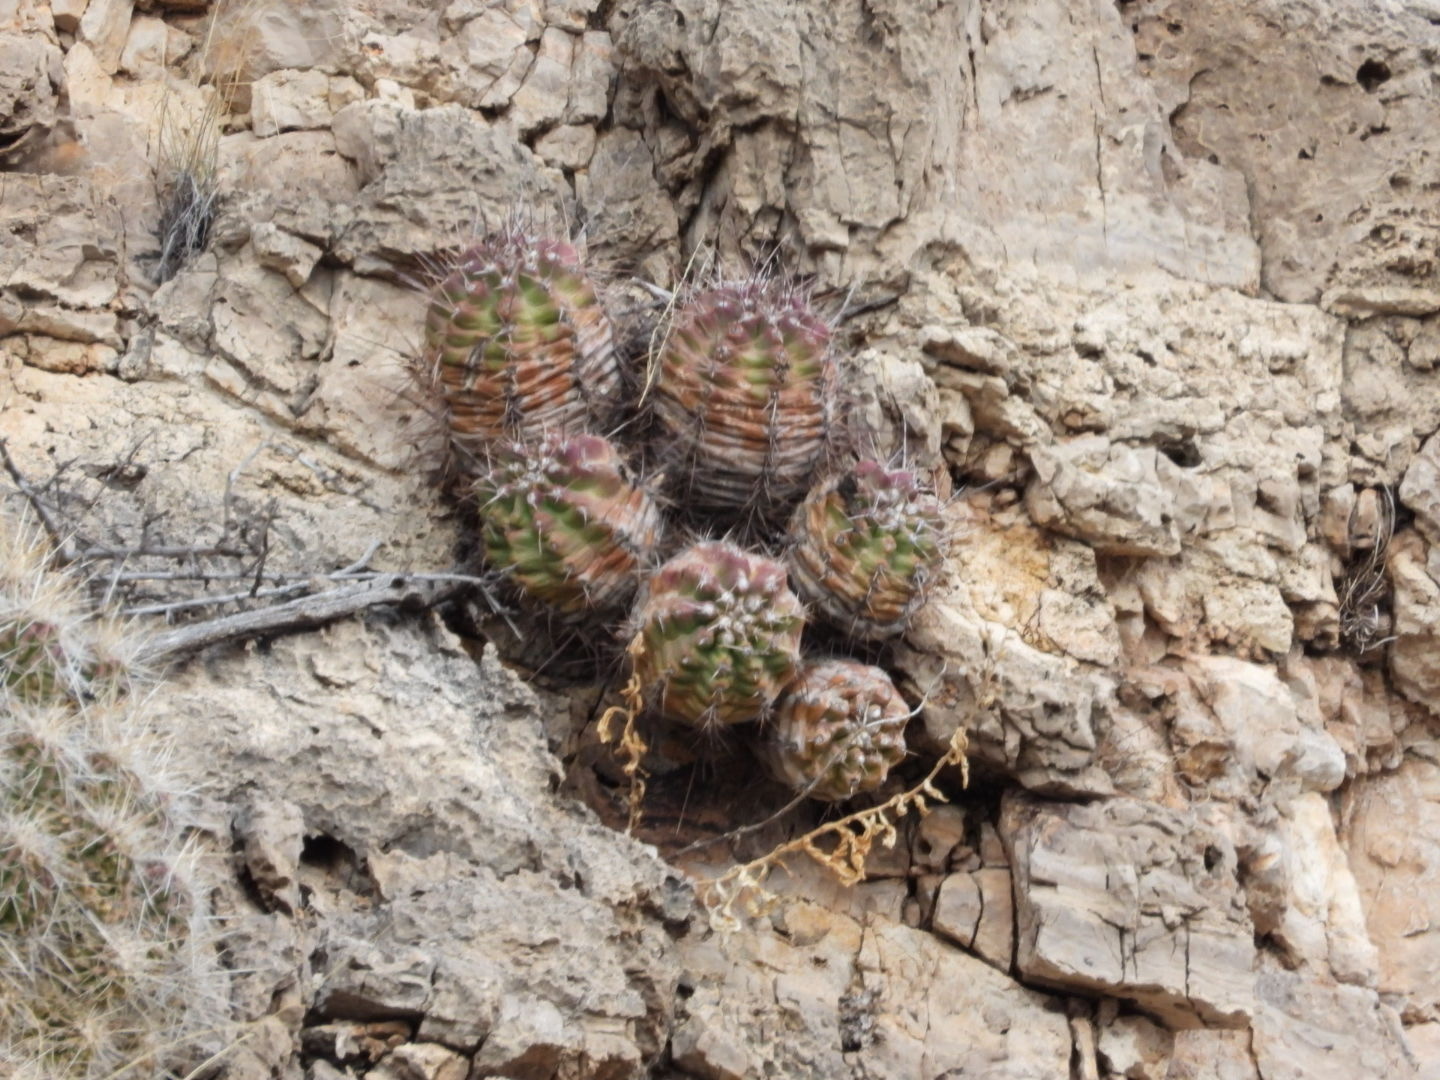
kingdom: Plantae
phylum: Tracheophyta
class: Magnoliopsida
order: Caryophyllales
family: Cactaceae
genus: Echinocereus
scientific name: Echinocereus coccineus
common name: Scarlet hedgehog cactus
